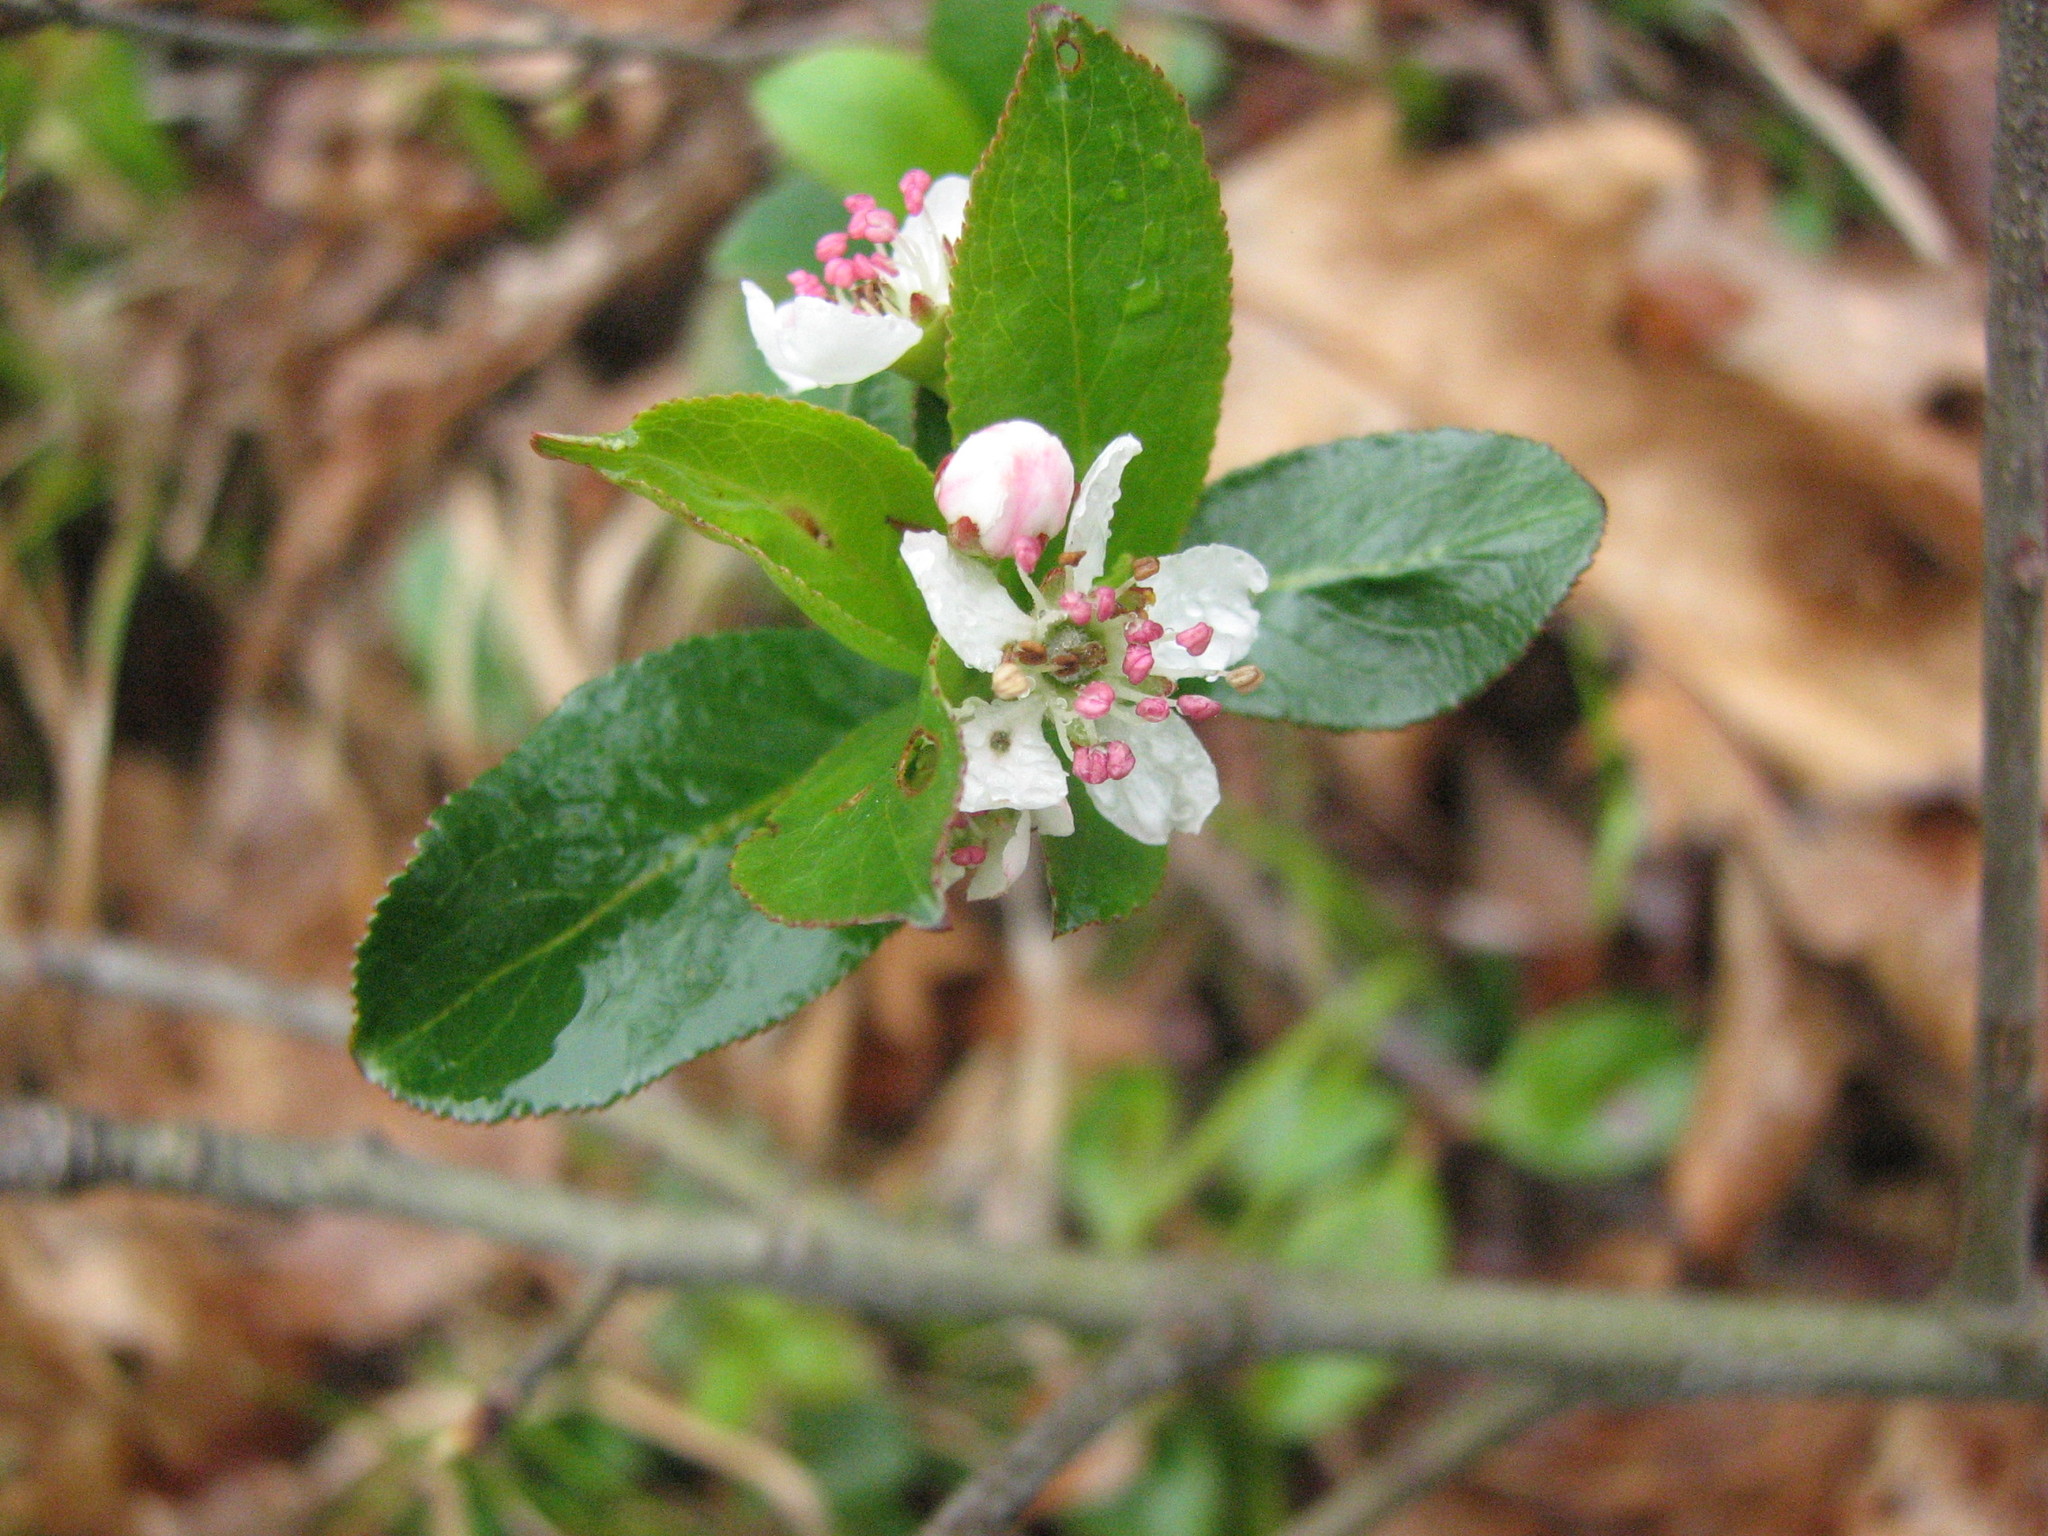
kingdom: Plantae
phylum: Tracheophyta
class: Magnoliopsida
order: Rosales
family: Rosaceae
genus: Aronia
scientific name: Aronia melanocarpa
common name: Black chokeberry
